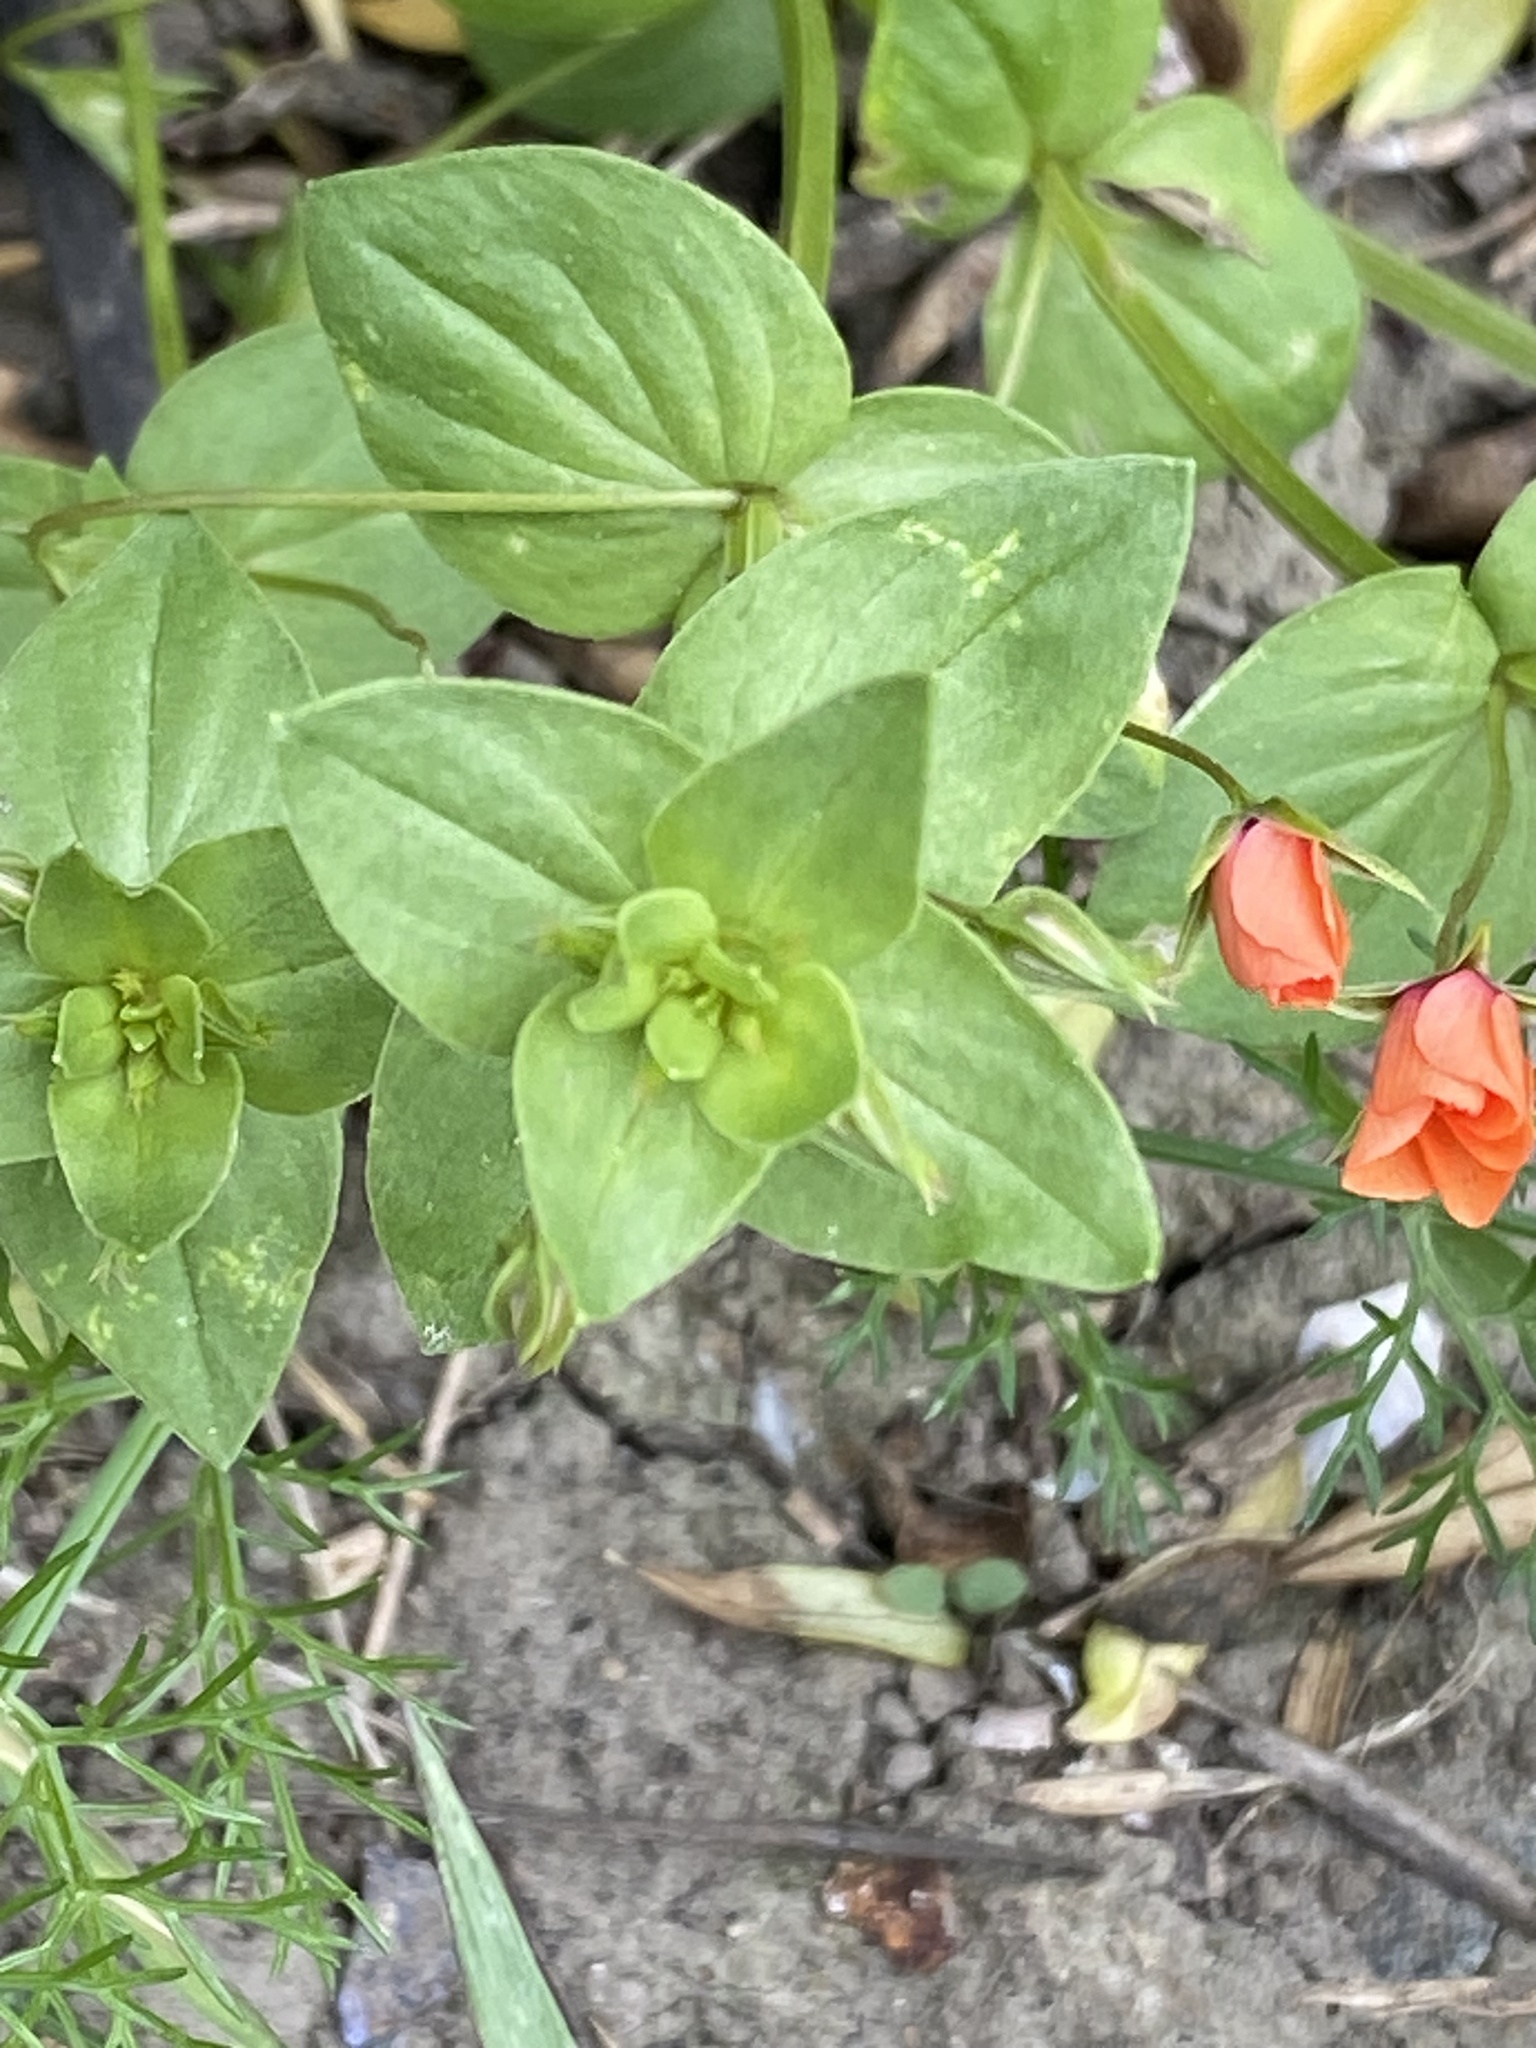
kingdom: Plantae
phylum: Tracheophyta
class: Magnoliopsida
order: Ericales
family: Primulaceae
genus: Lysimachia
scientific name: Lysimachia arvensis
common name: Scarlet pimpernel
